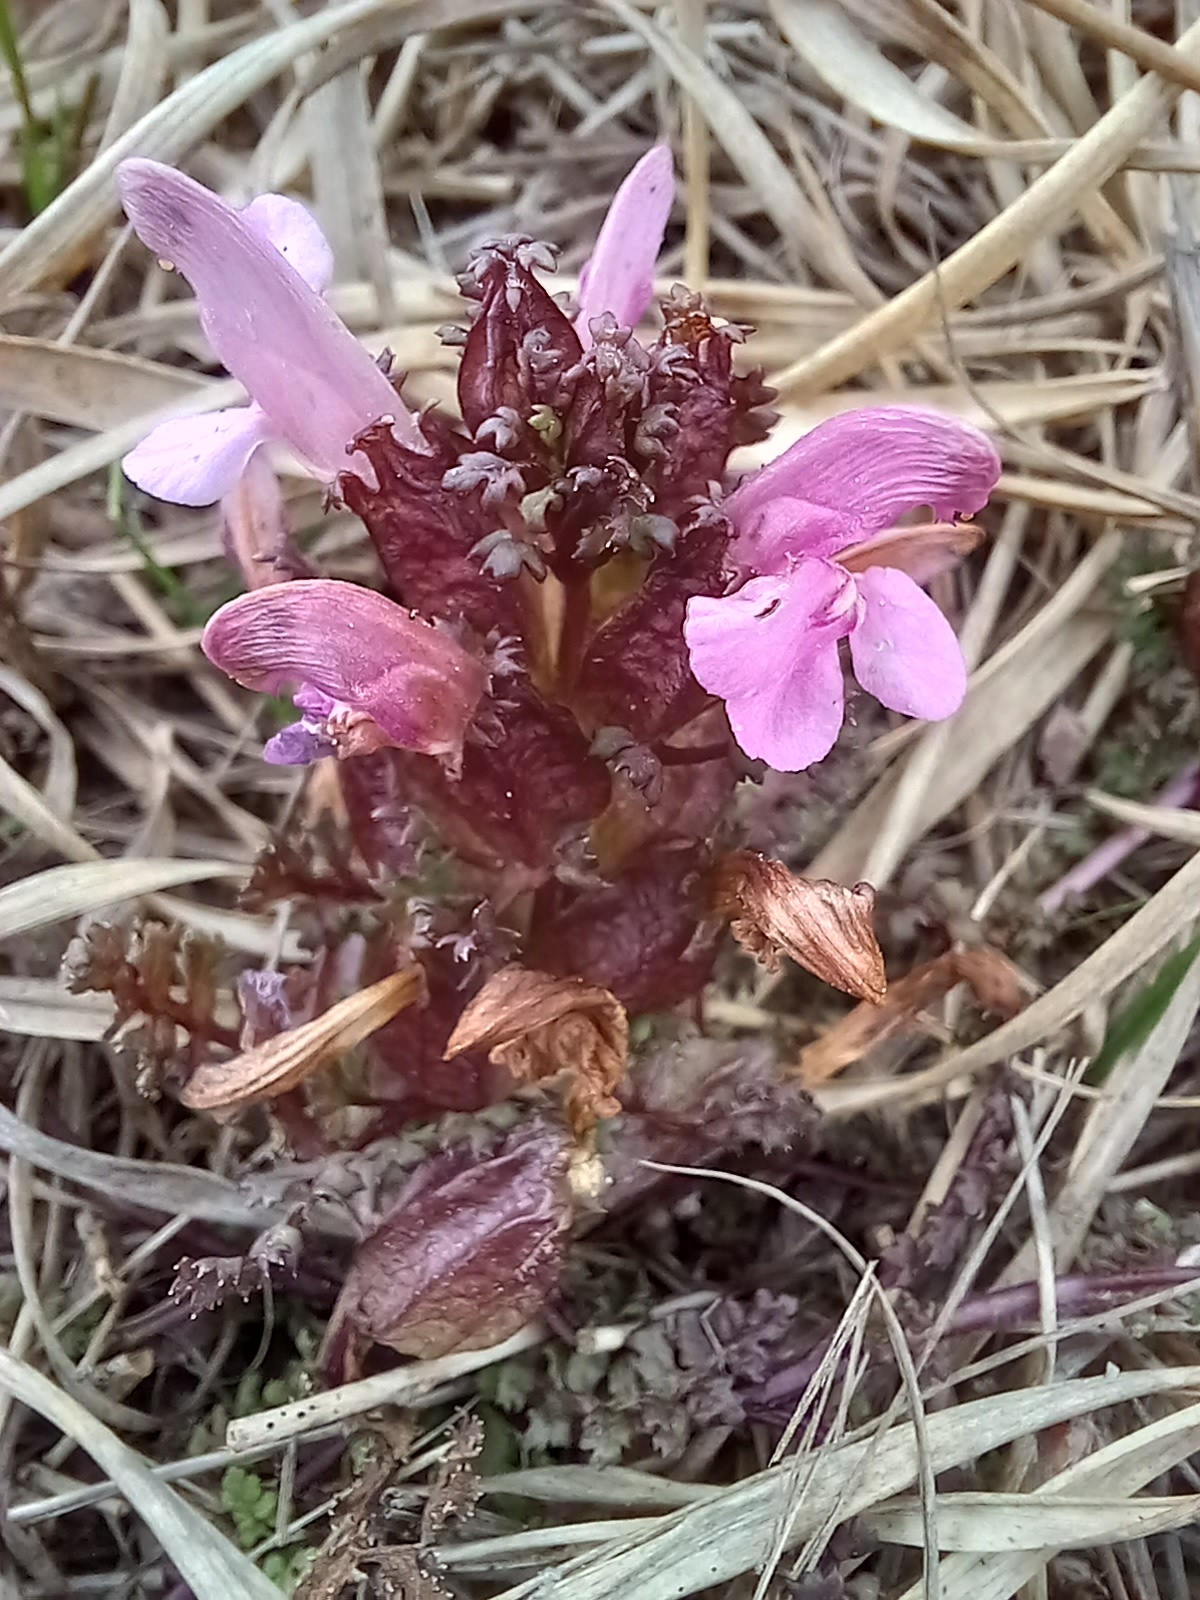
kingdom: Plantae
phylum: Tracheophyta
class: Magnoliopsida
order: Lamiales
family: Orobanchaceae
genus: Pedicularis
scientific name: Pedicularis sylvatica
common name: Lousewort
